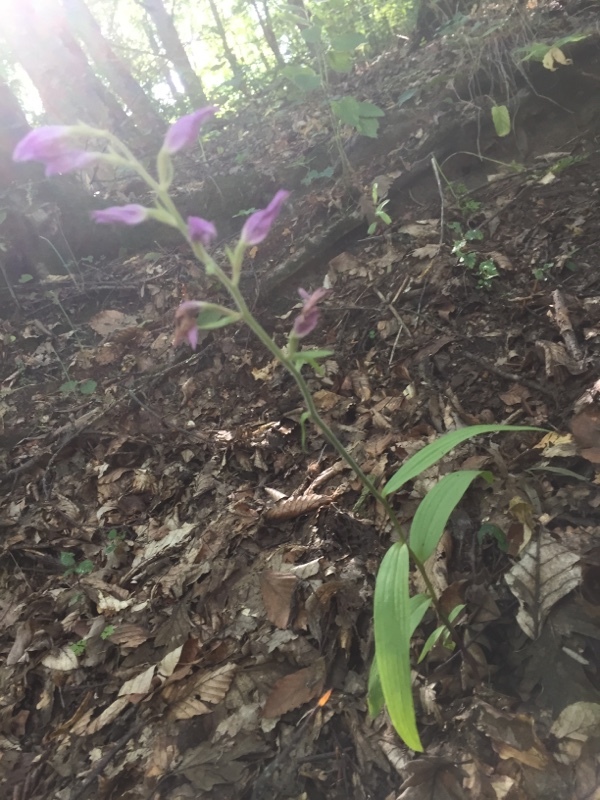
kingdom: Plantae
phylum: Tracheophyta
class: Liliopsida
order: Asparagales
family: Orchidaceae
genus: Cephalanthera
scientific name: Cephalanthera rubra
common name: Red helleborine
